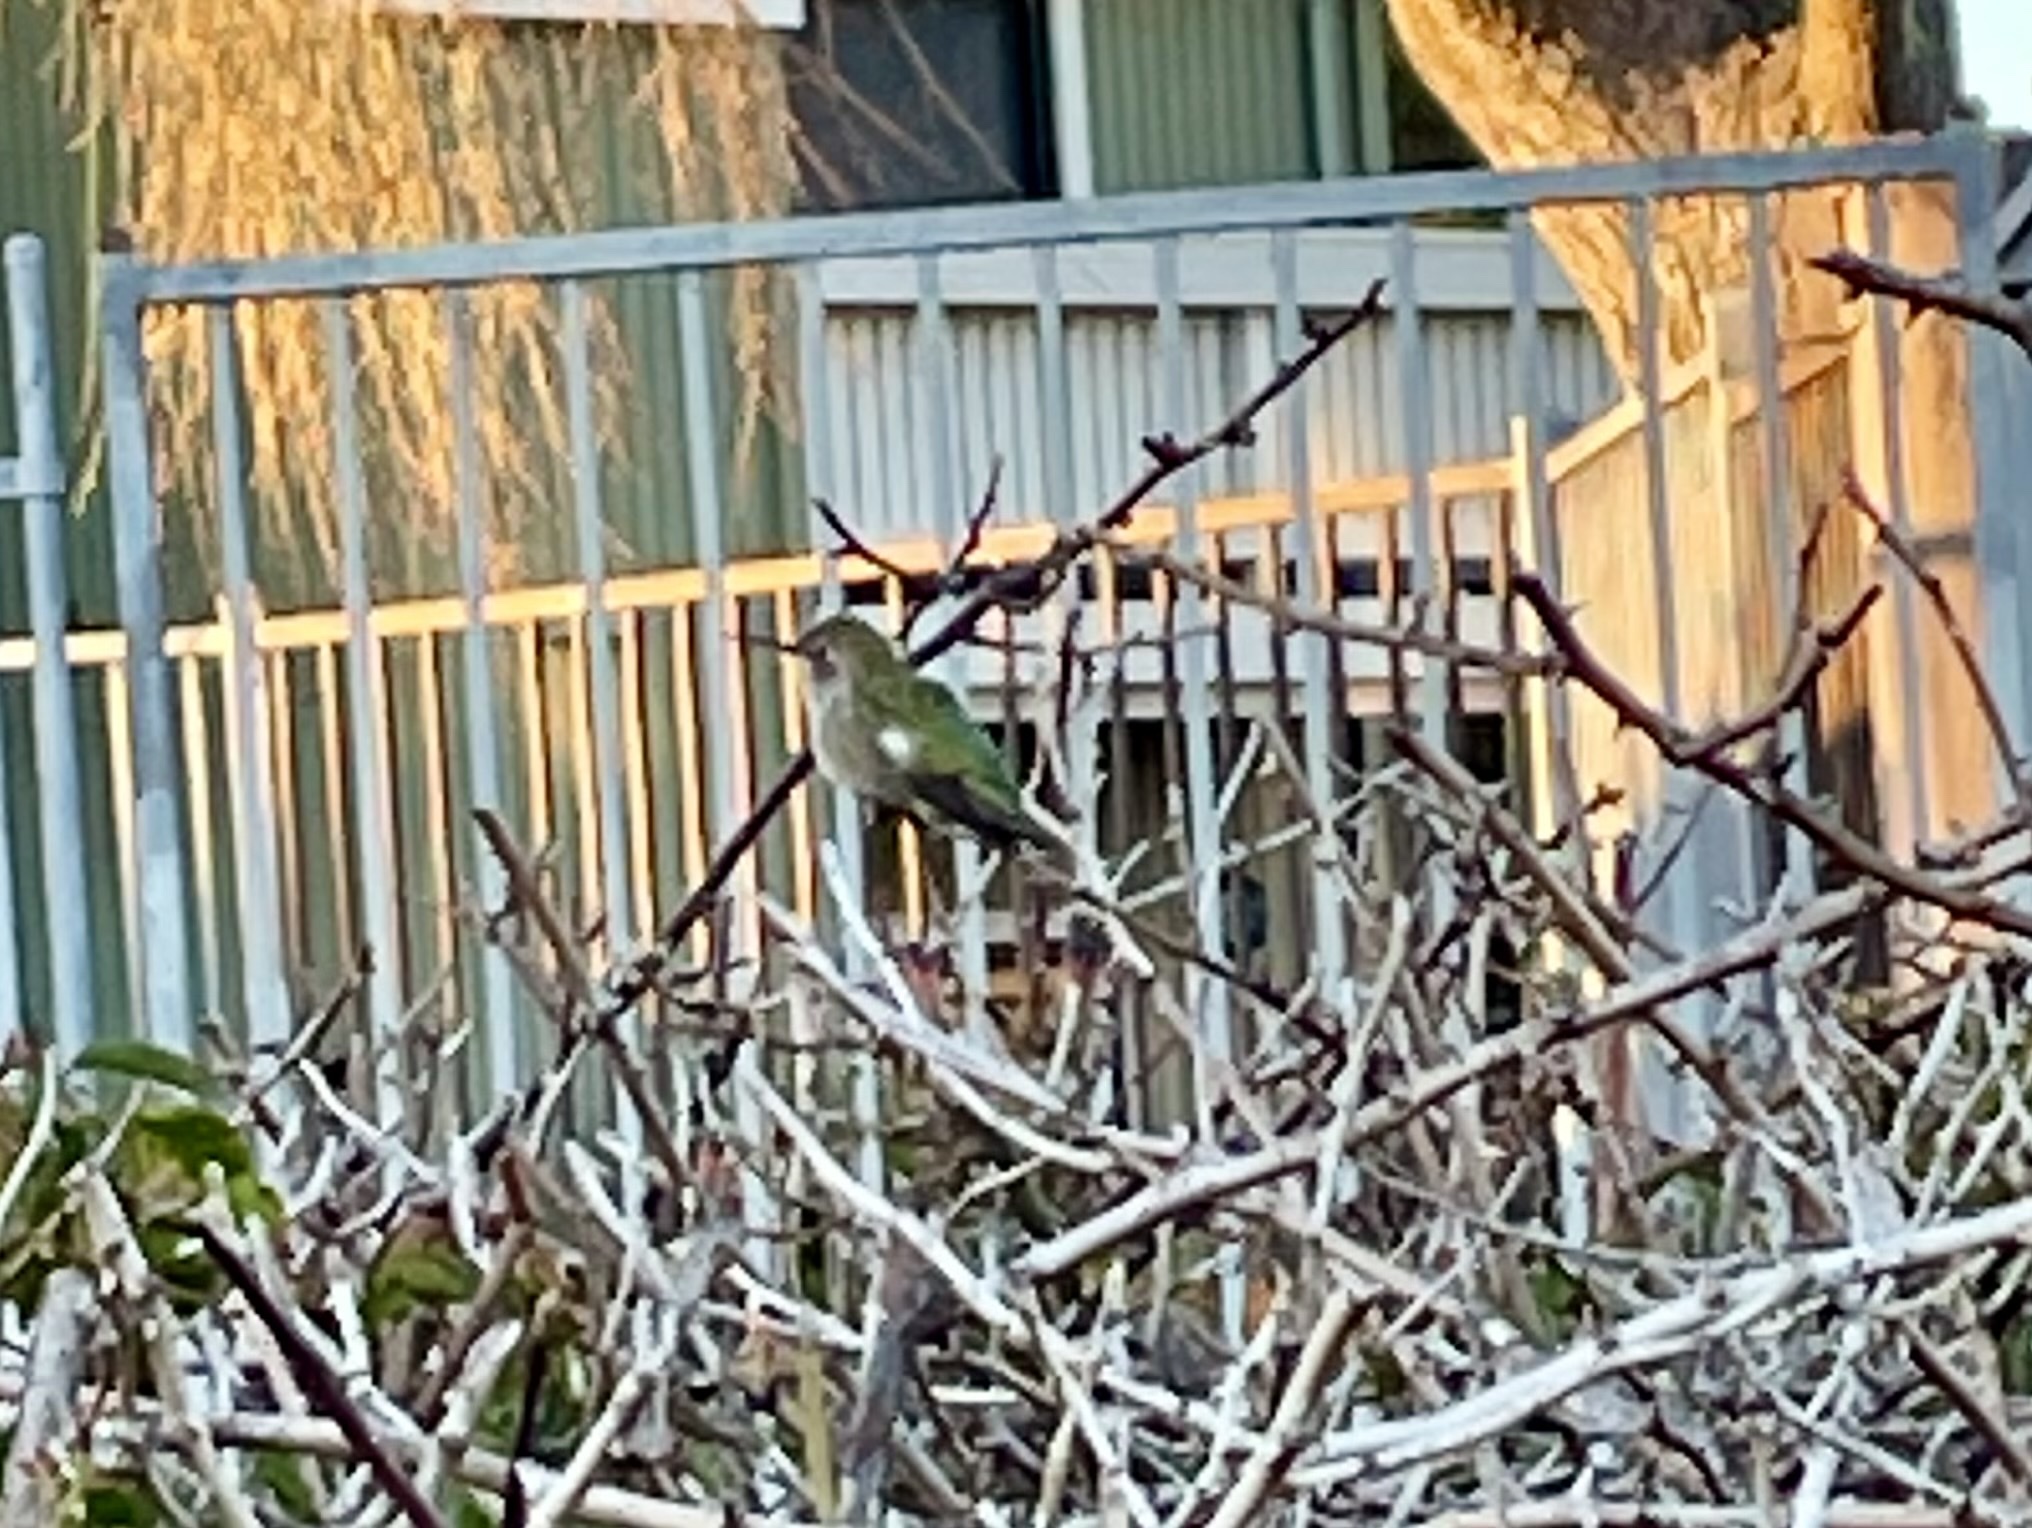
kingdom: Animalia
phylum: Chordata
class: Aves
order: Apodiformes
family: Trochilidae
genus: Calypte
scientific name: Calypte anna
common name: Anna's hummingbird
